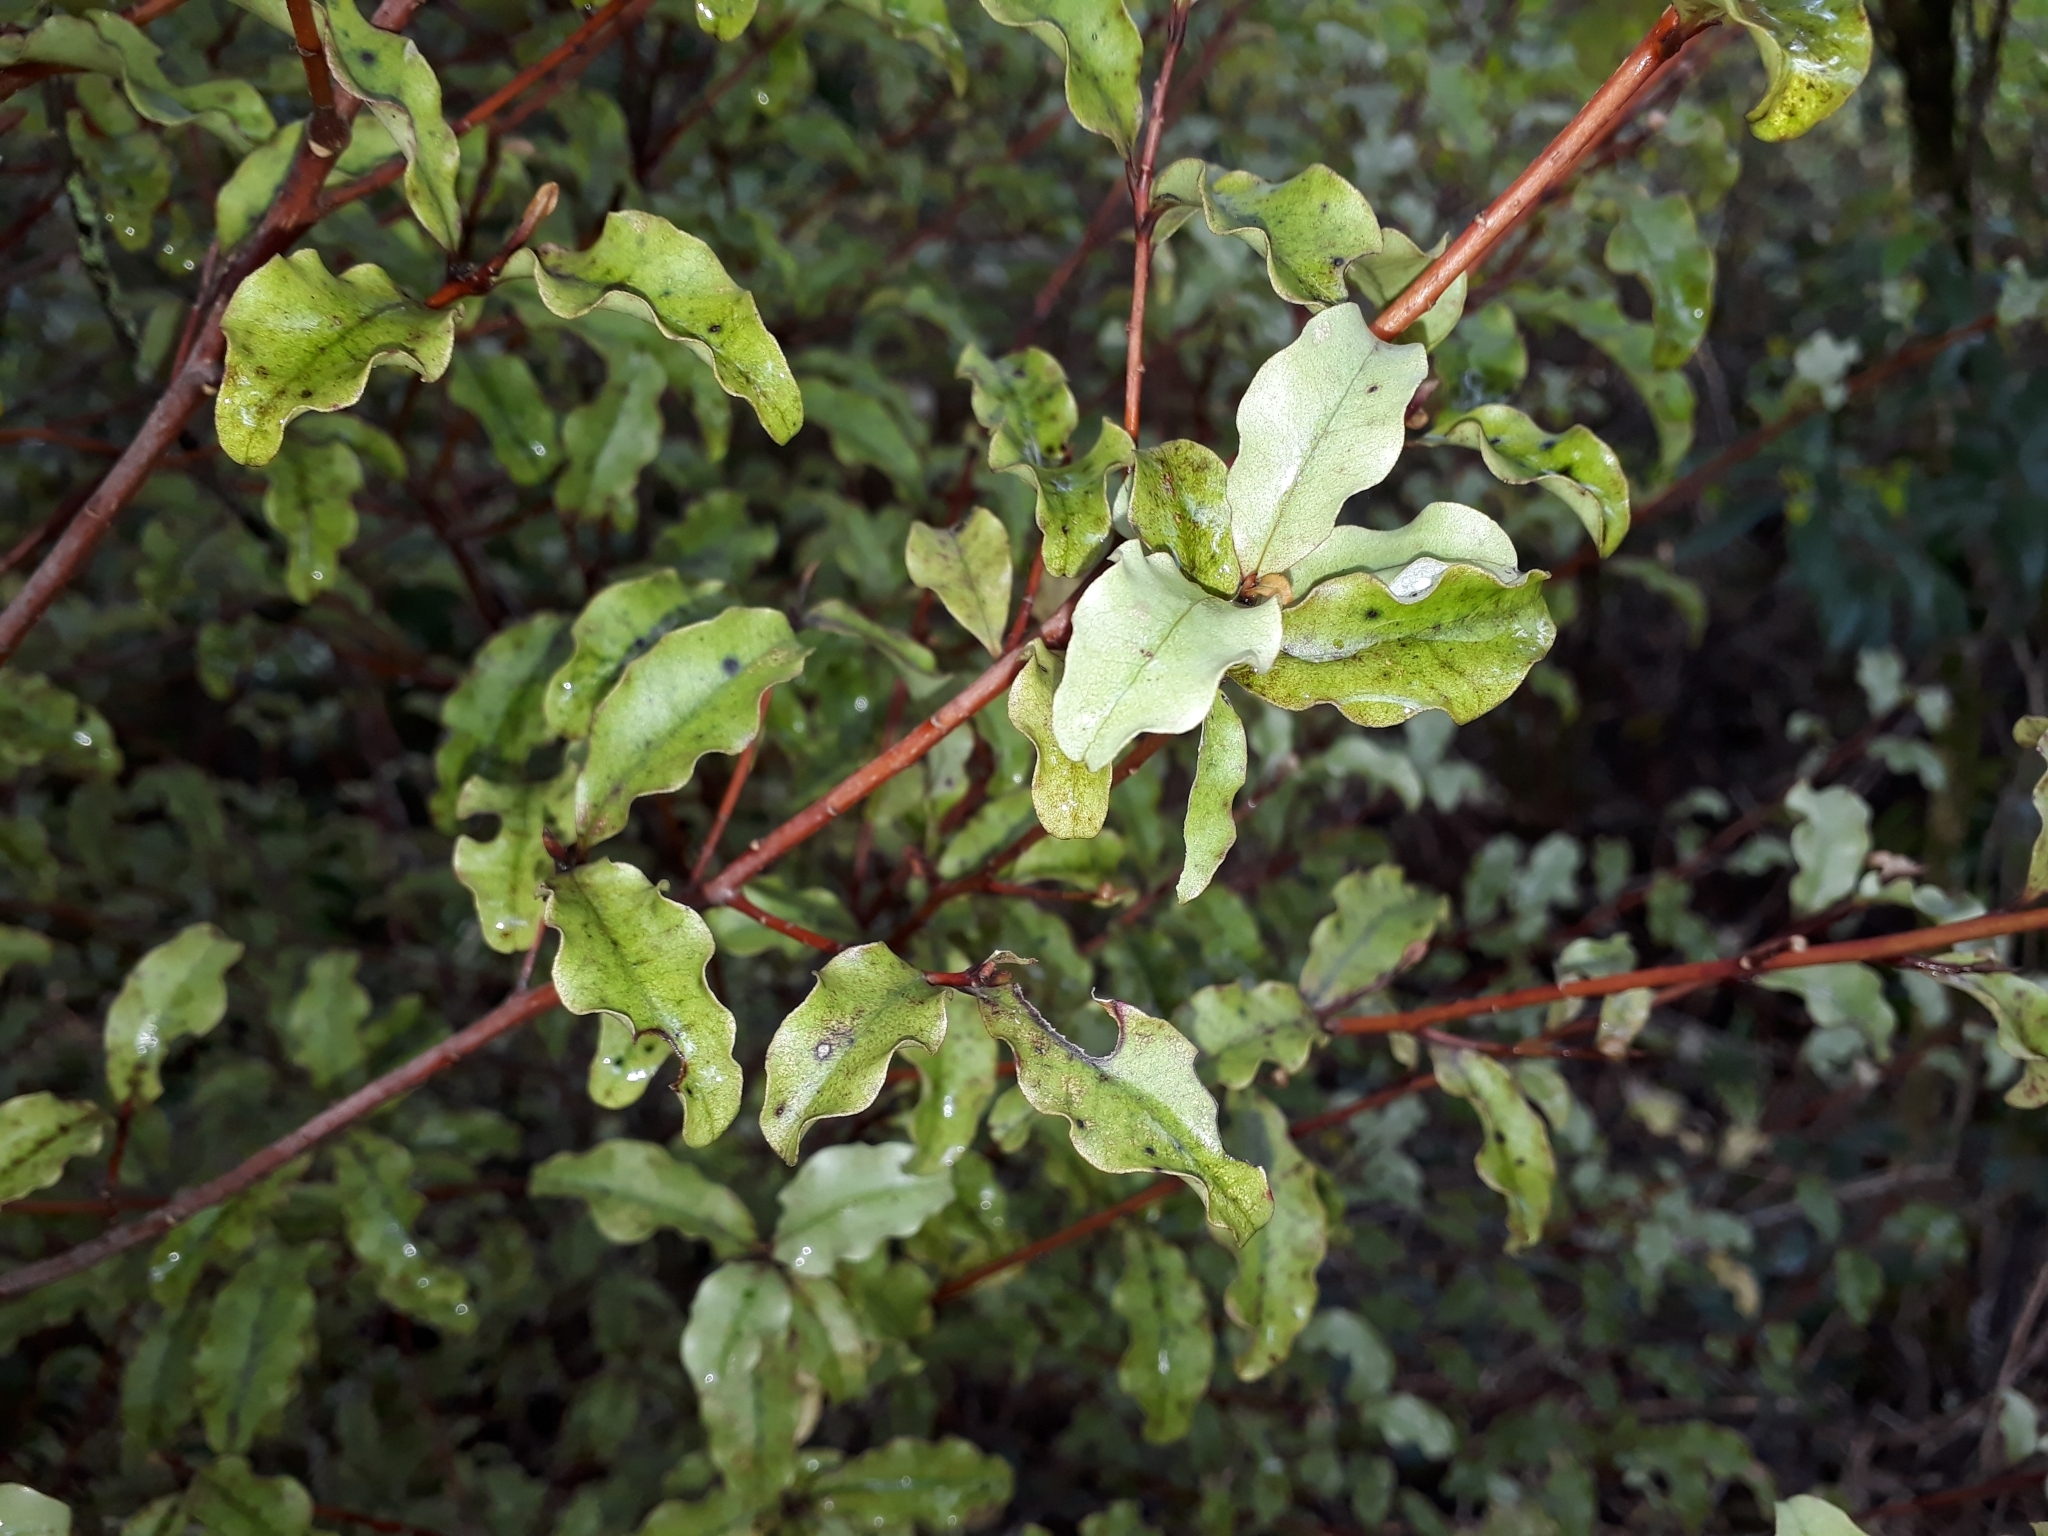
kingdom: Plantae
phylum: Tracheophyta
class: Magnoliopsida
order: Ericales
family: Primulaceae
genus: Myrsine
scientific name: Myrsine australis
